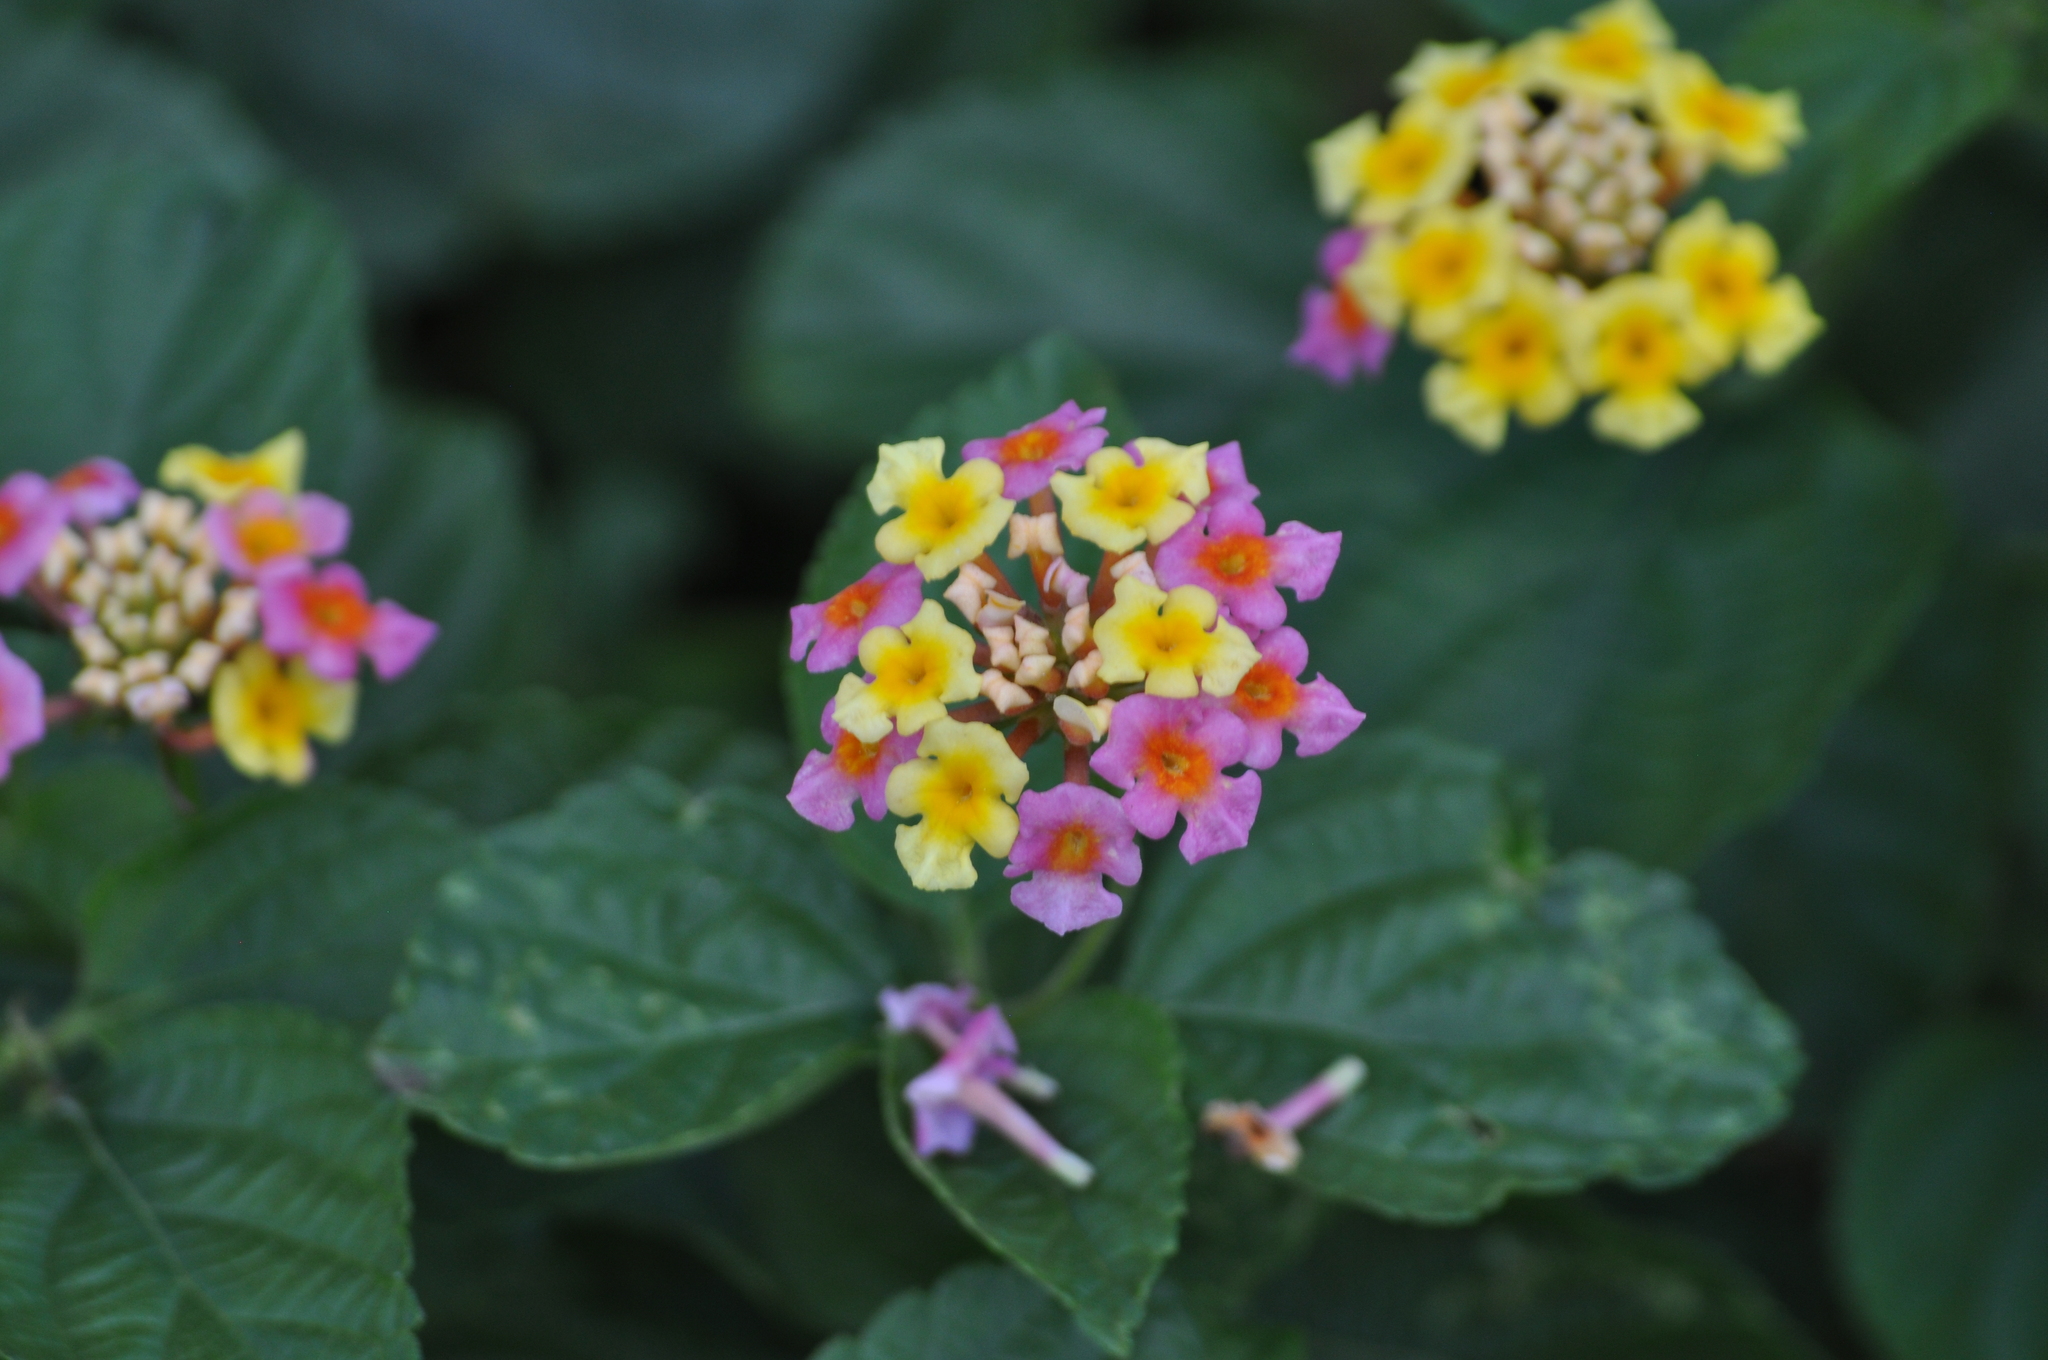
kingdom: Plantae
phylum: Tracheophyta
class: Magnoliopsida
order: Lamiales
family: Verbenaceae
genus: Lantana
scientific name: Lantana strigocamara
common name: Lantana
